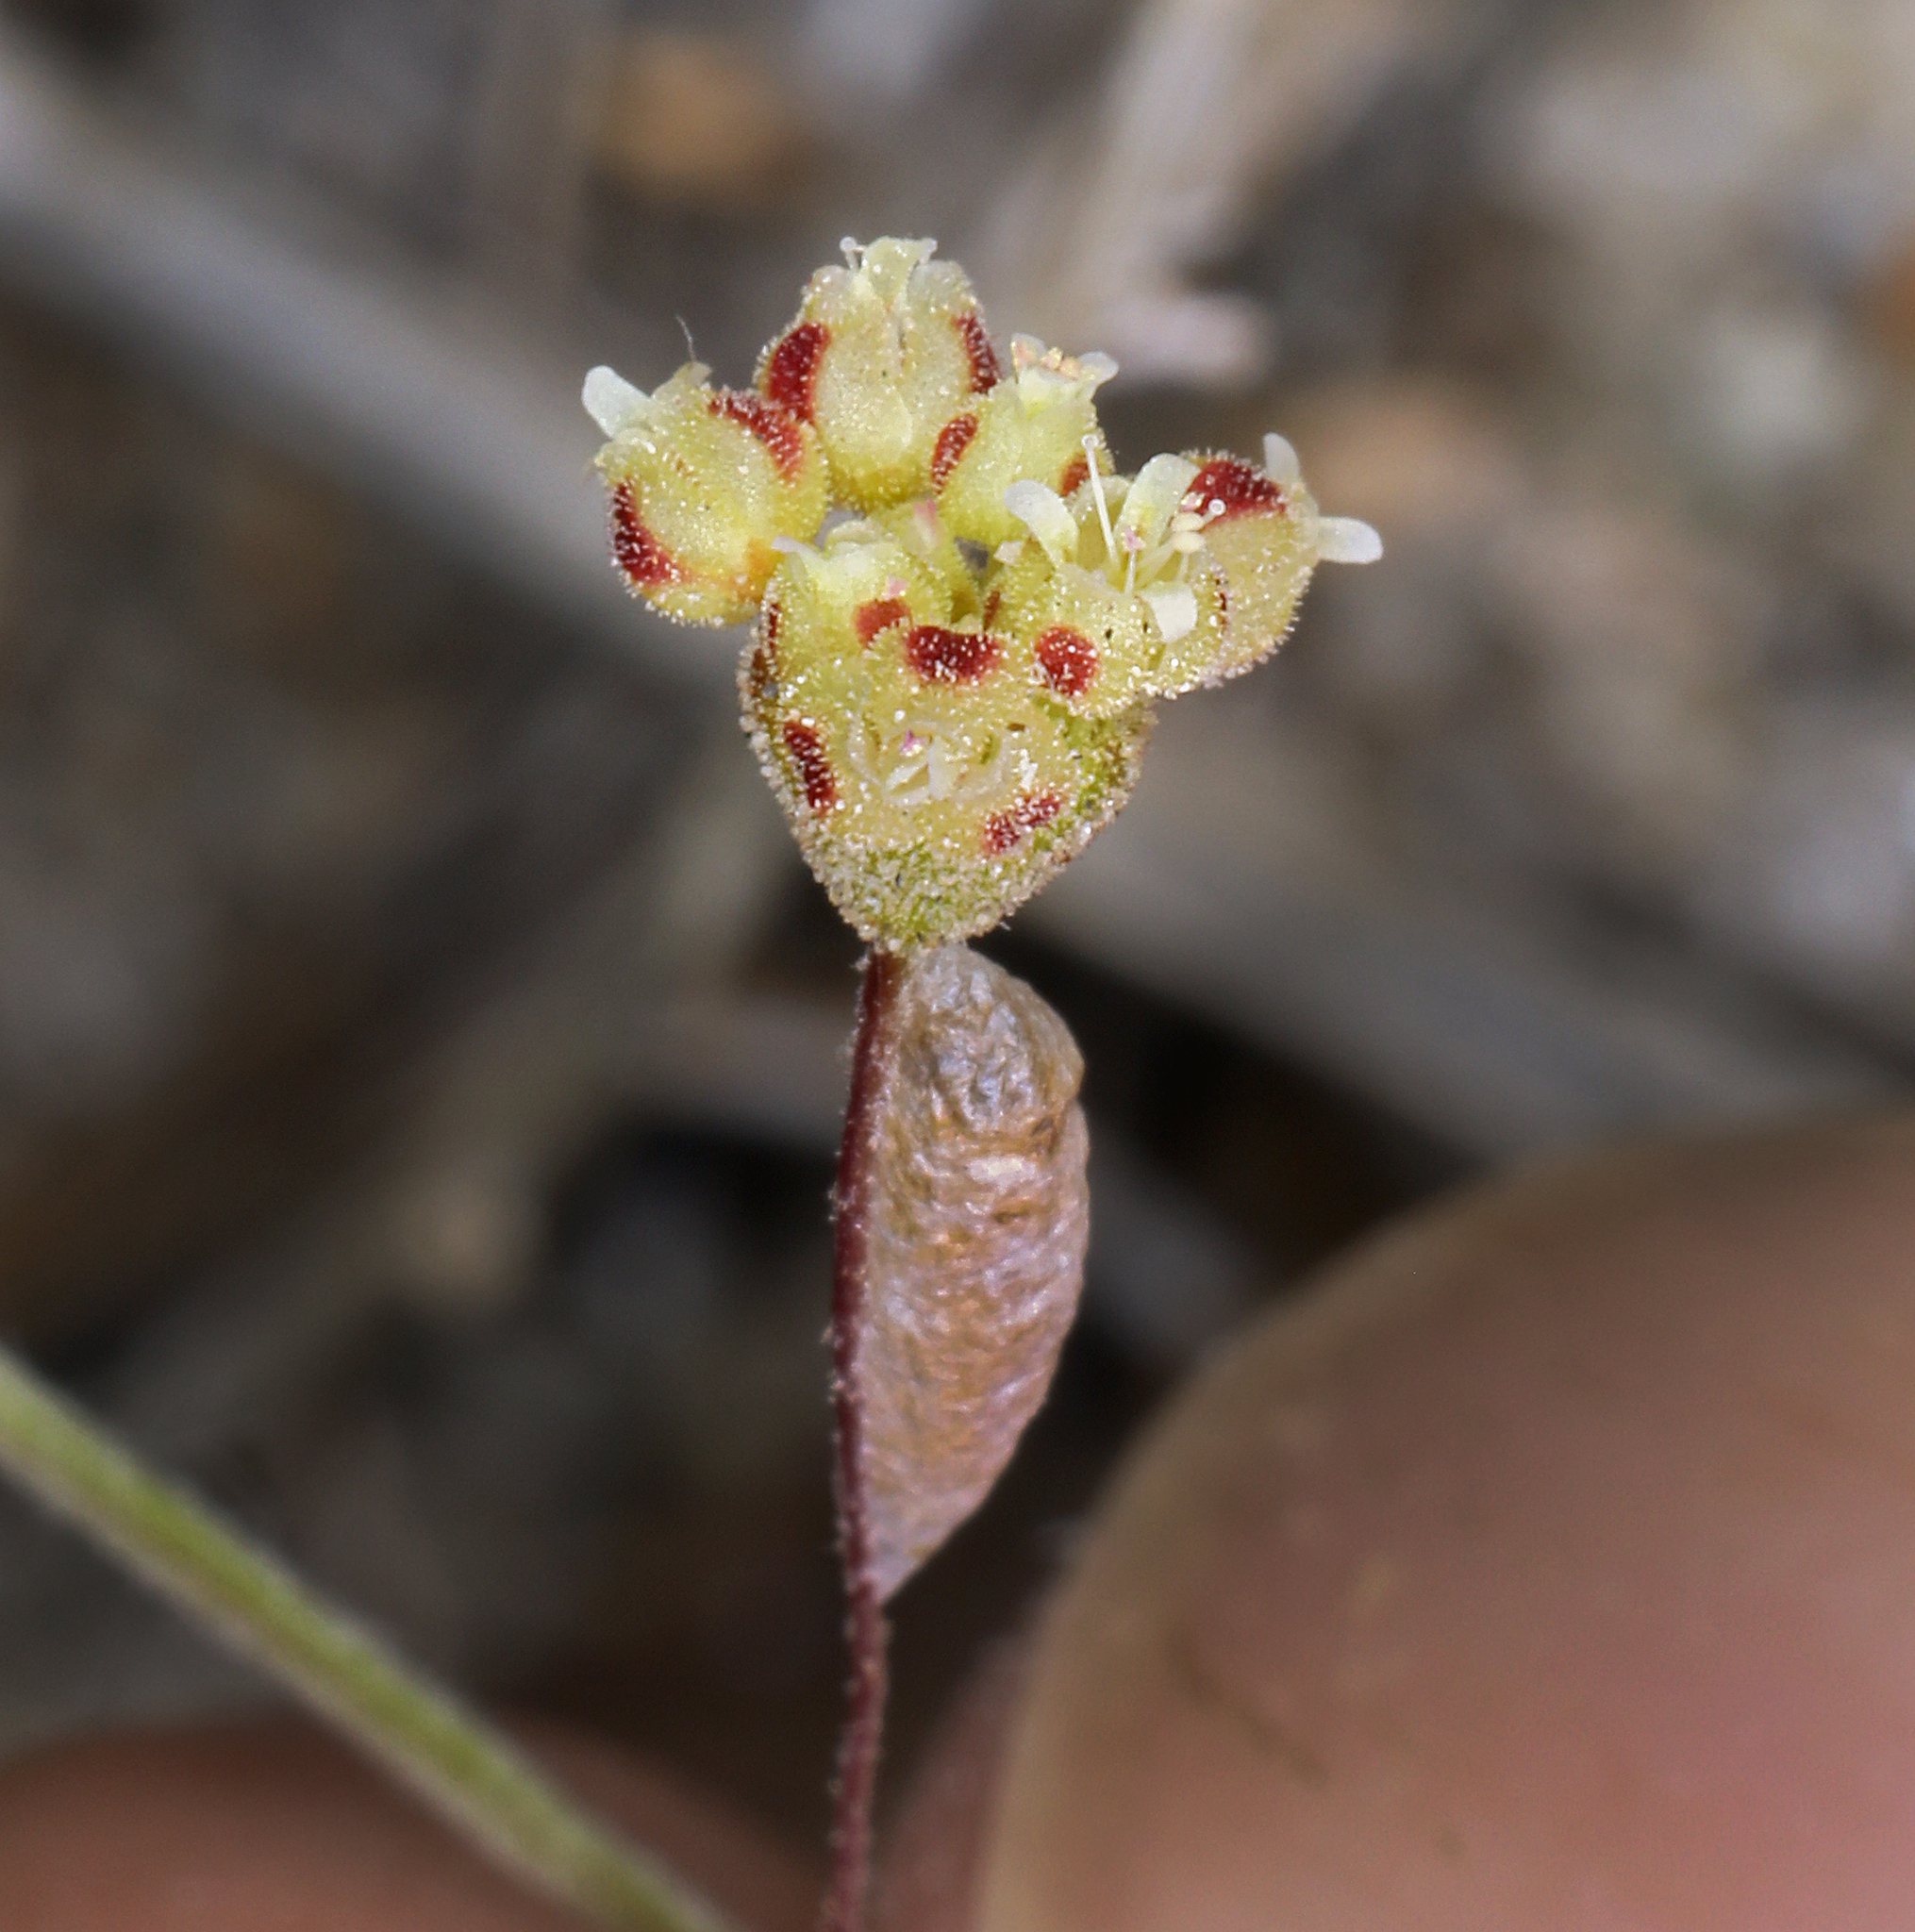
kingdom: Plantae
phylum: Tracheophyta
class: Magnoliopsida
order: Caryophyllales
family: Polygonaceae
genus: Eriogonum
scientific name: Eriogonum maculatum
